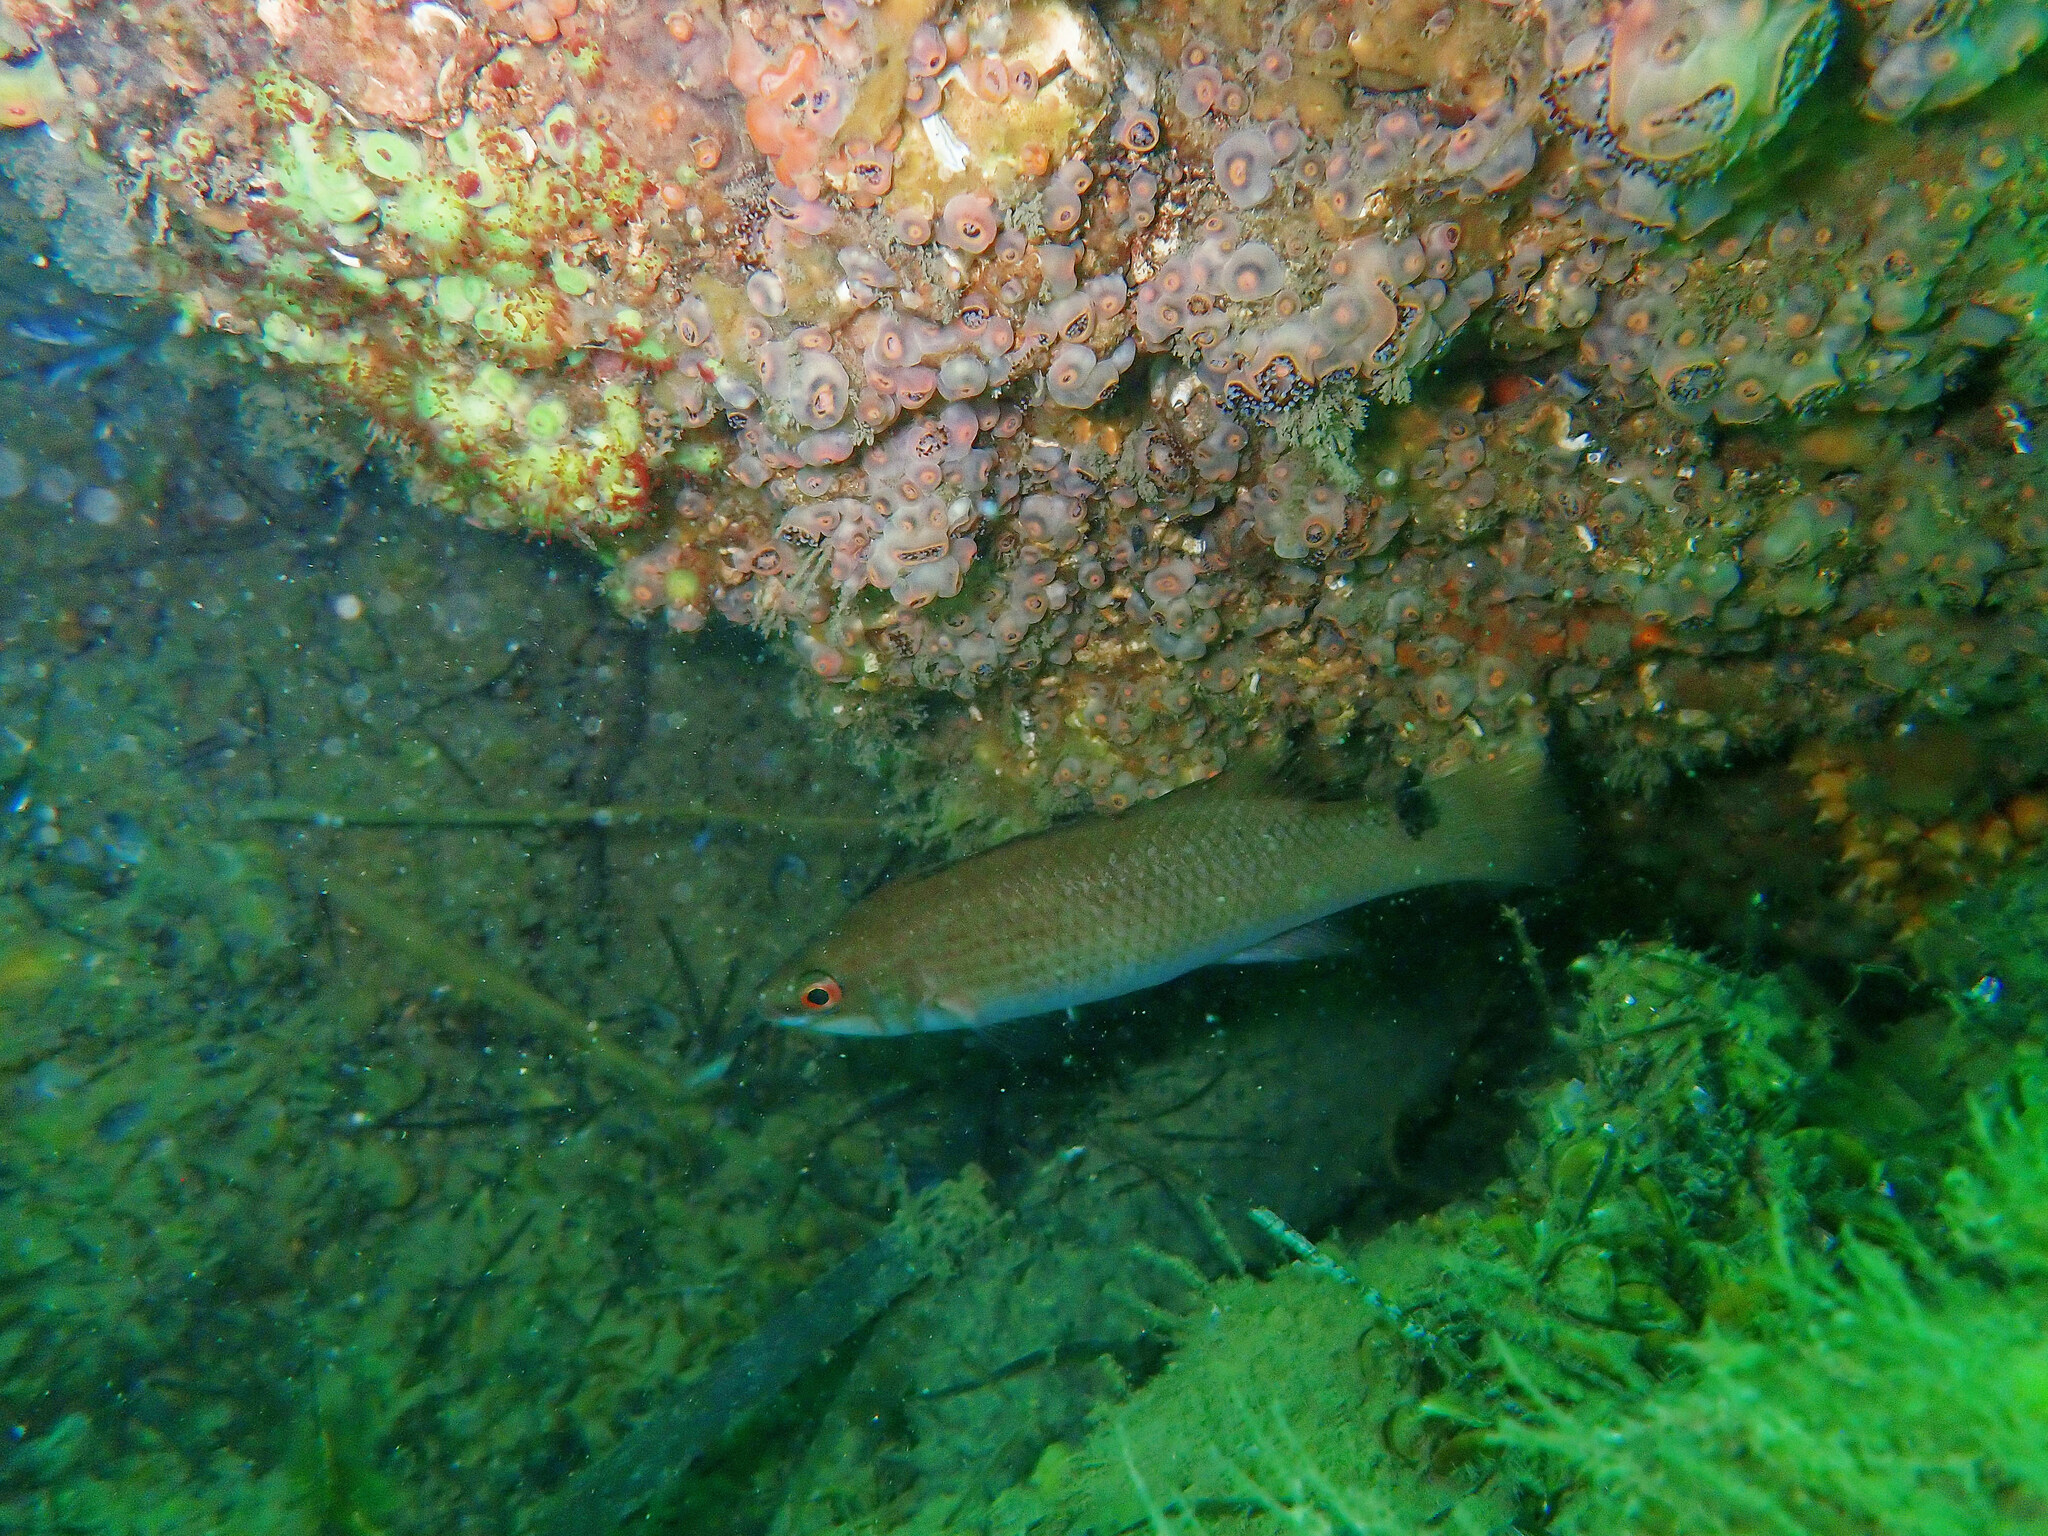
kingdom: Animalia
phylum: Chordata
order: Perciformes
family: Labridae
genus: Ctenolabrus
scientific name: Ctenolabrus rupestris
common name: Goldsinny
